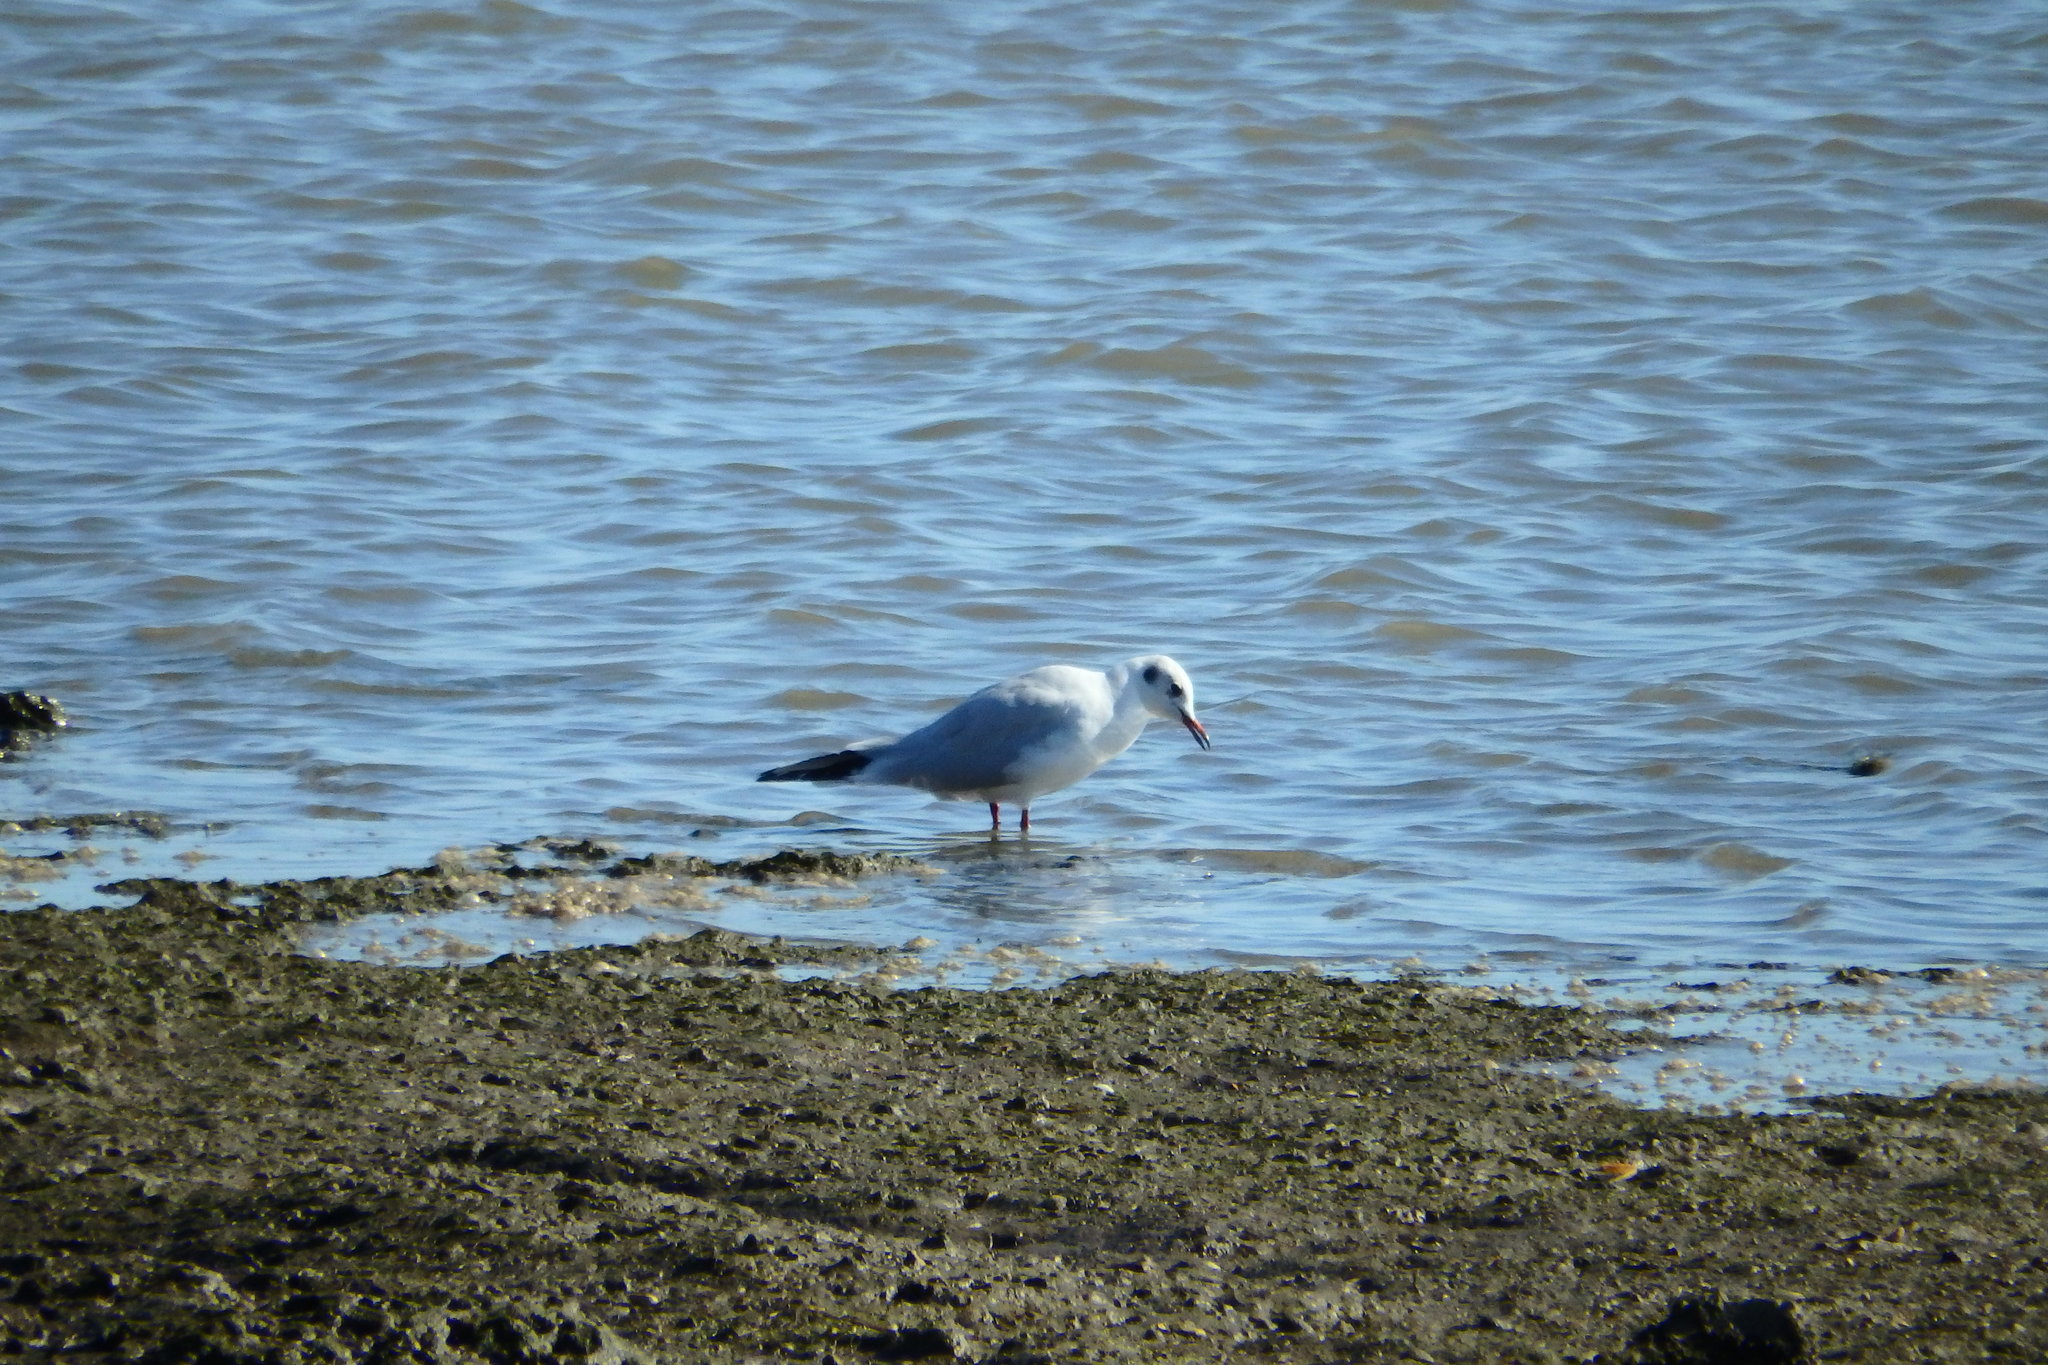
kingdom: Animalia
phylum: Chordata
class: Aves
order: Charadriiformes
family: Laridae
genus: Chroicocephalus
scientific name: Chroicocephalus ridibundus
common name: Black-headed gull
